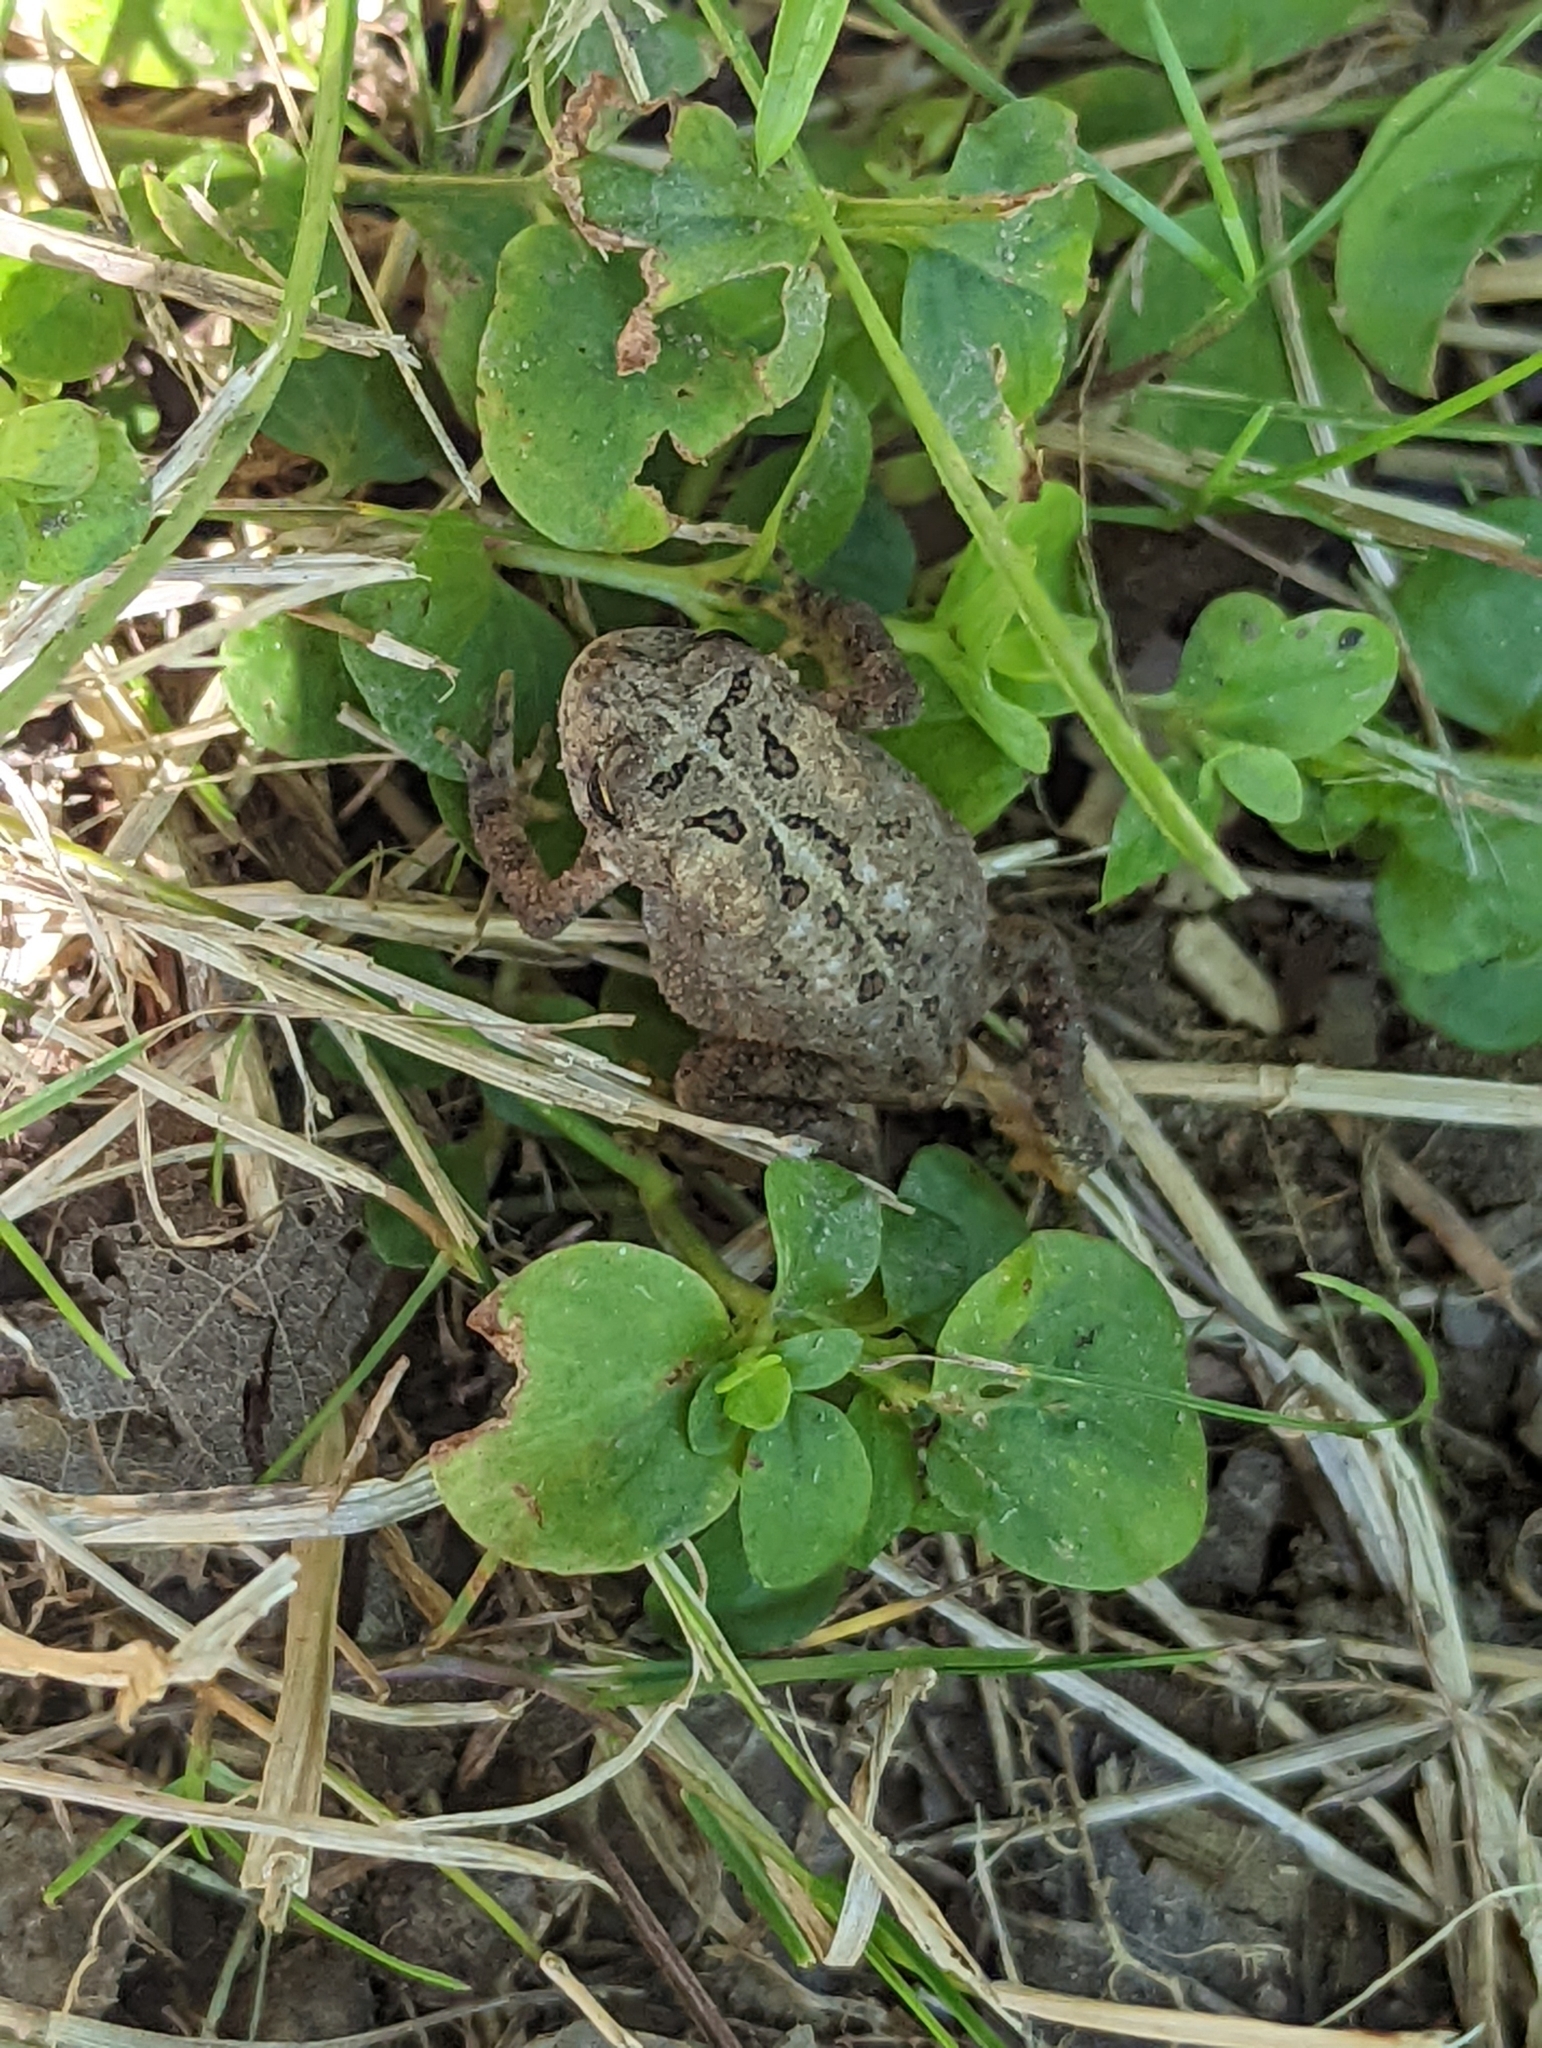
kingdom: Animalia
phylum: Chordata
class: Amphibia
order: Anura
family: Bufonidae
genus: Anaxyrus
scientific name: Anaxyrus americanus
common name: American toad
